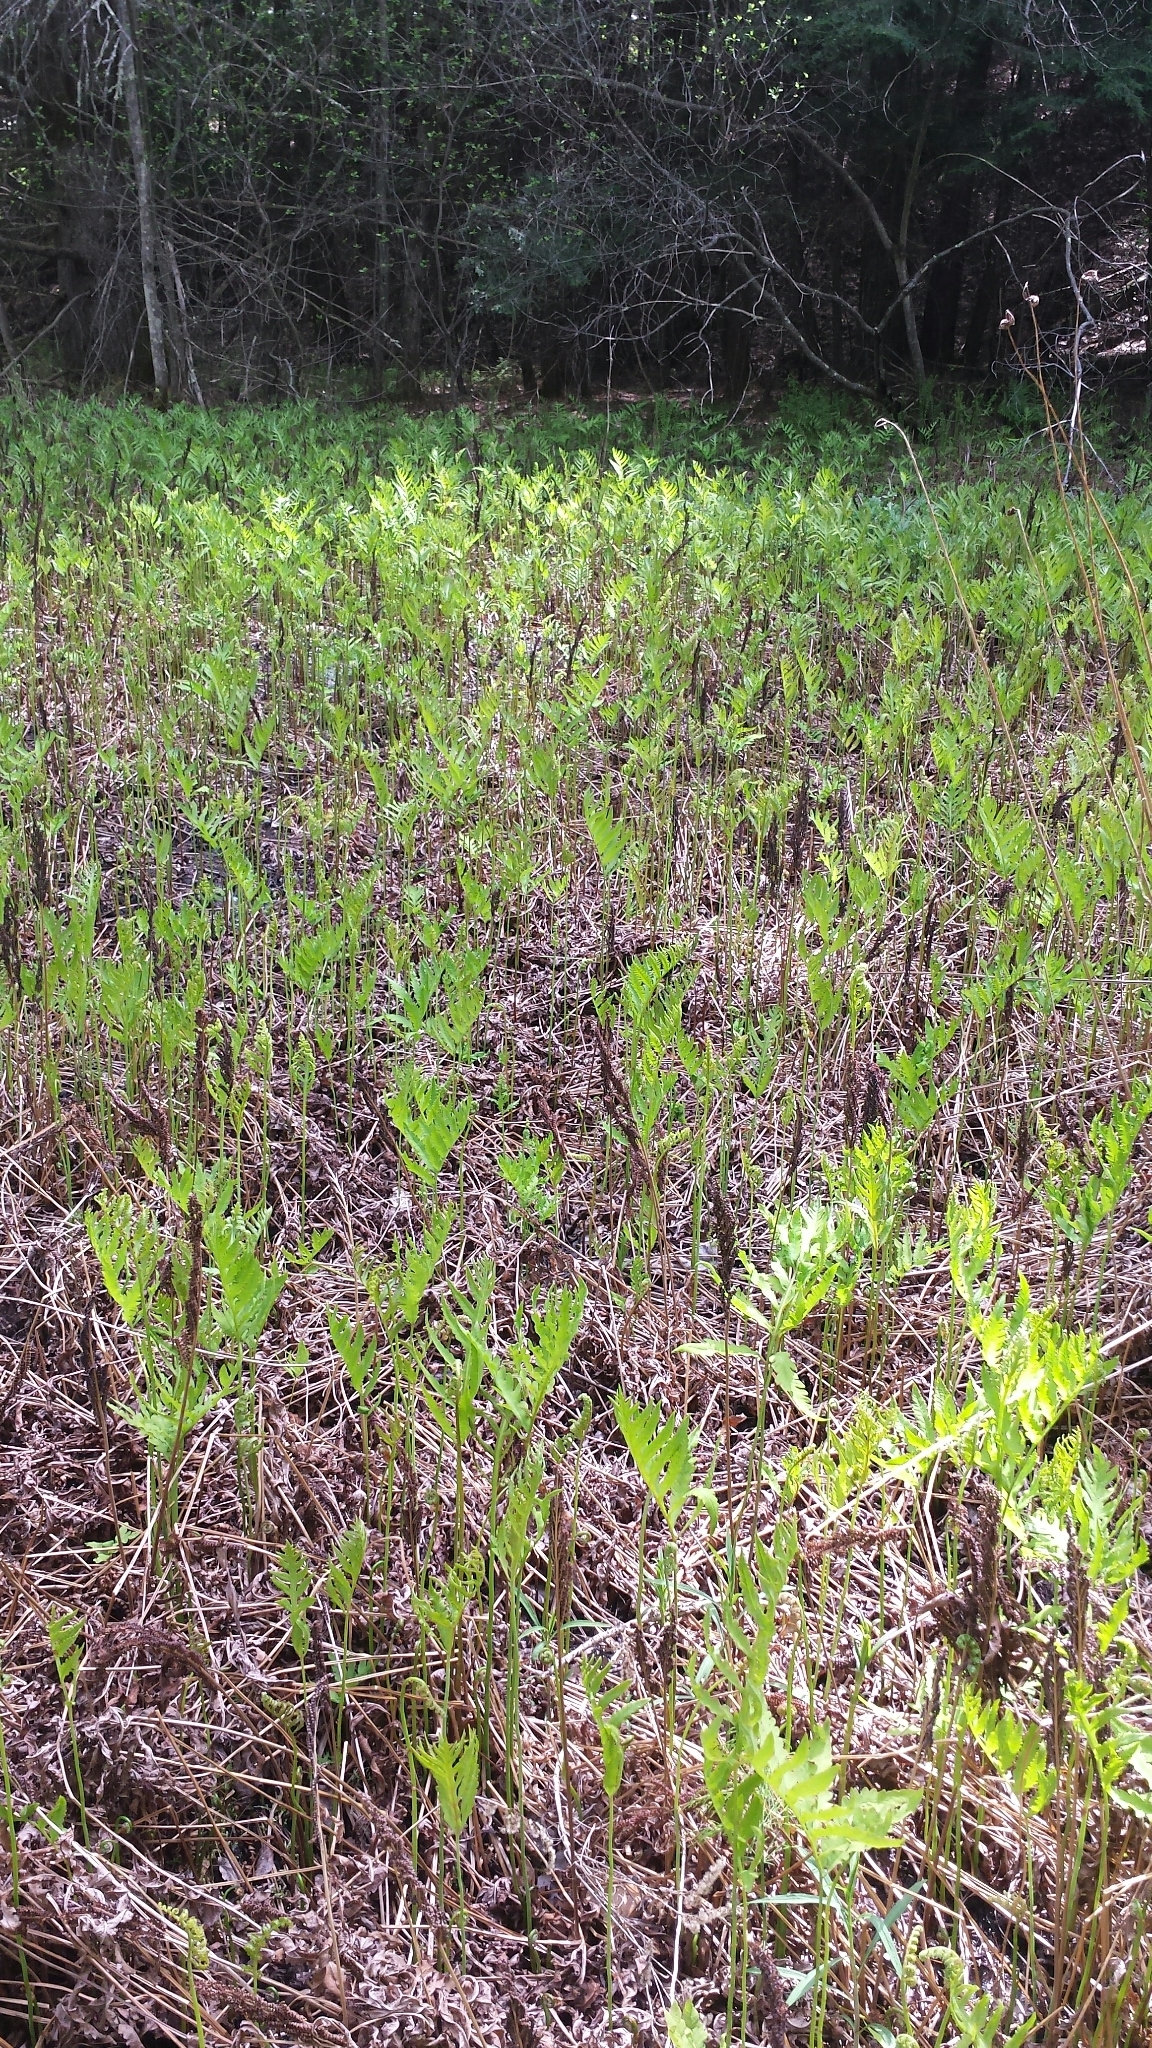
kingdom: Plantae
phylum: Tracheophyta
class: Polypodiopsida
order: Polypodiales
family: Onocleaceae
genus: Onoclea
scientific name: Onoclea sensibilis
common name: Sensitive fern
